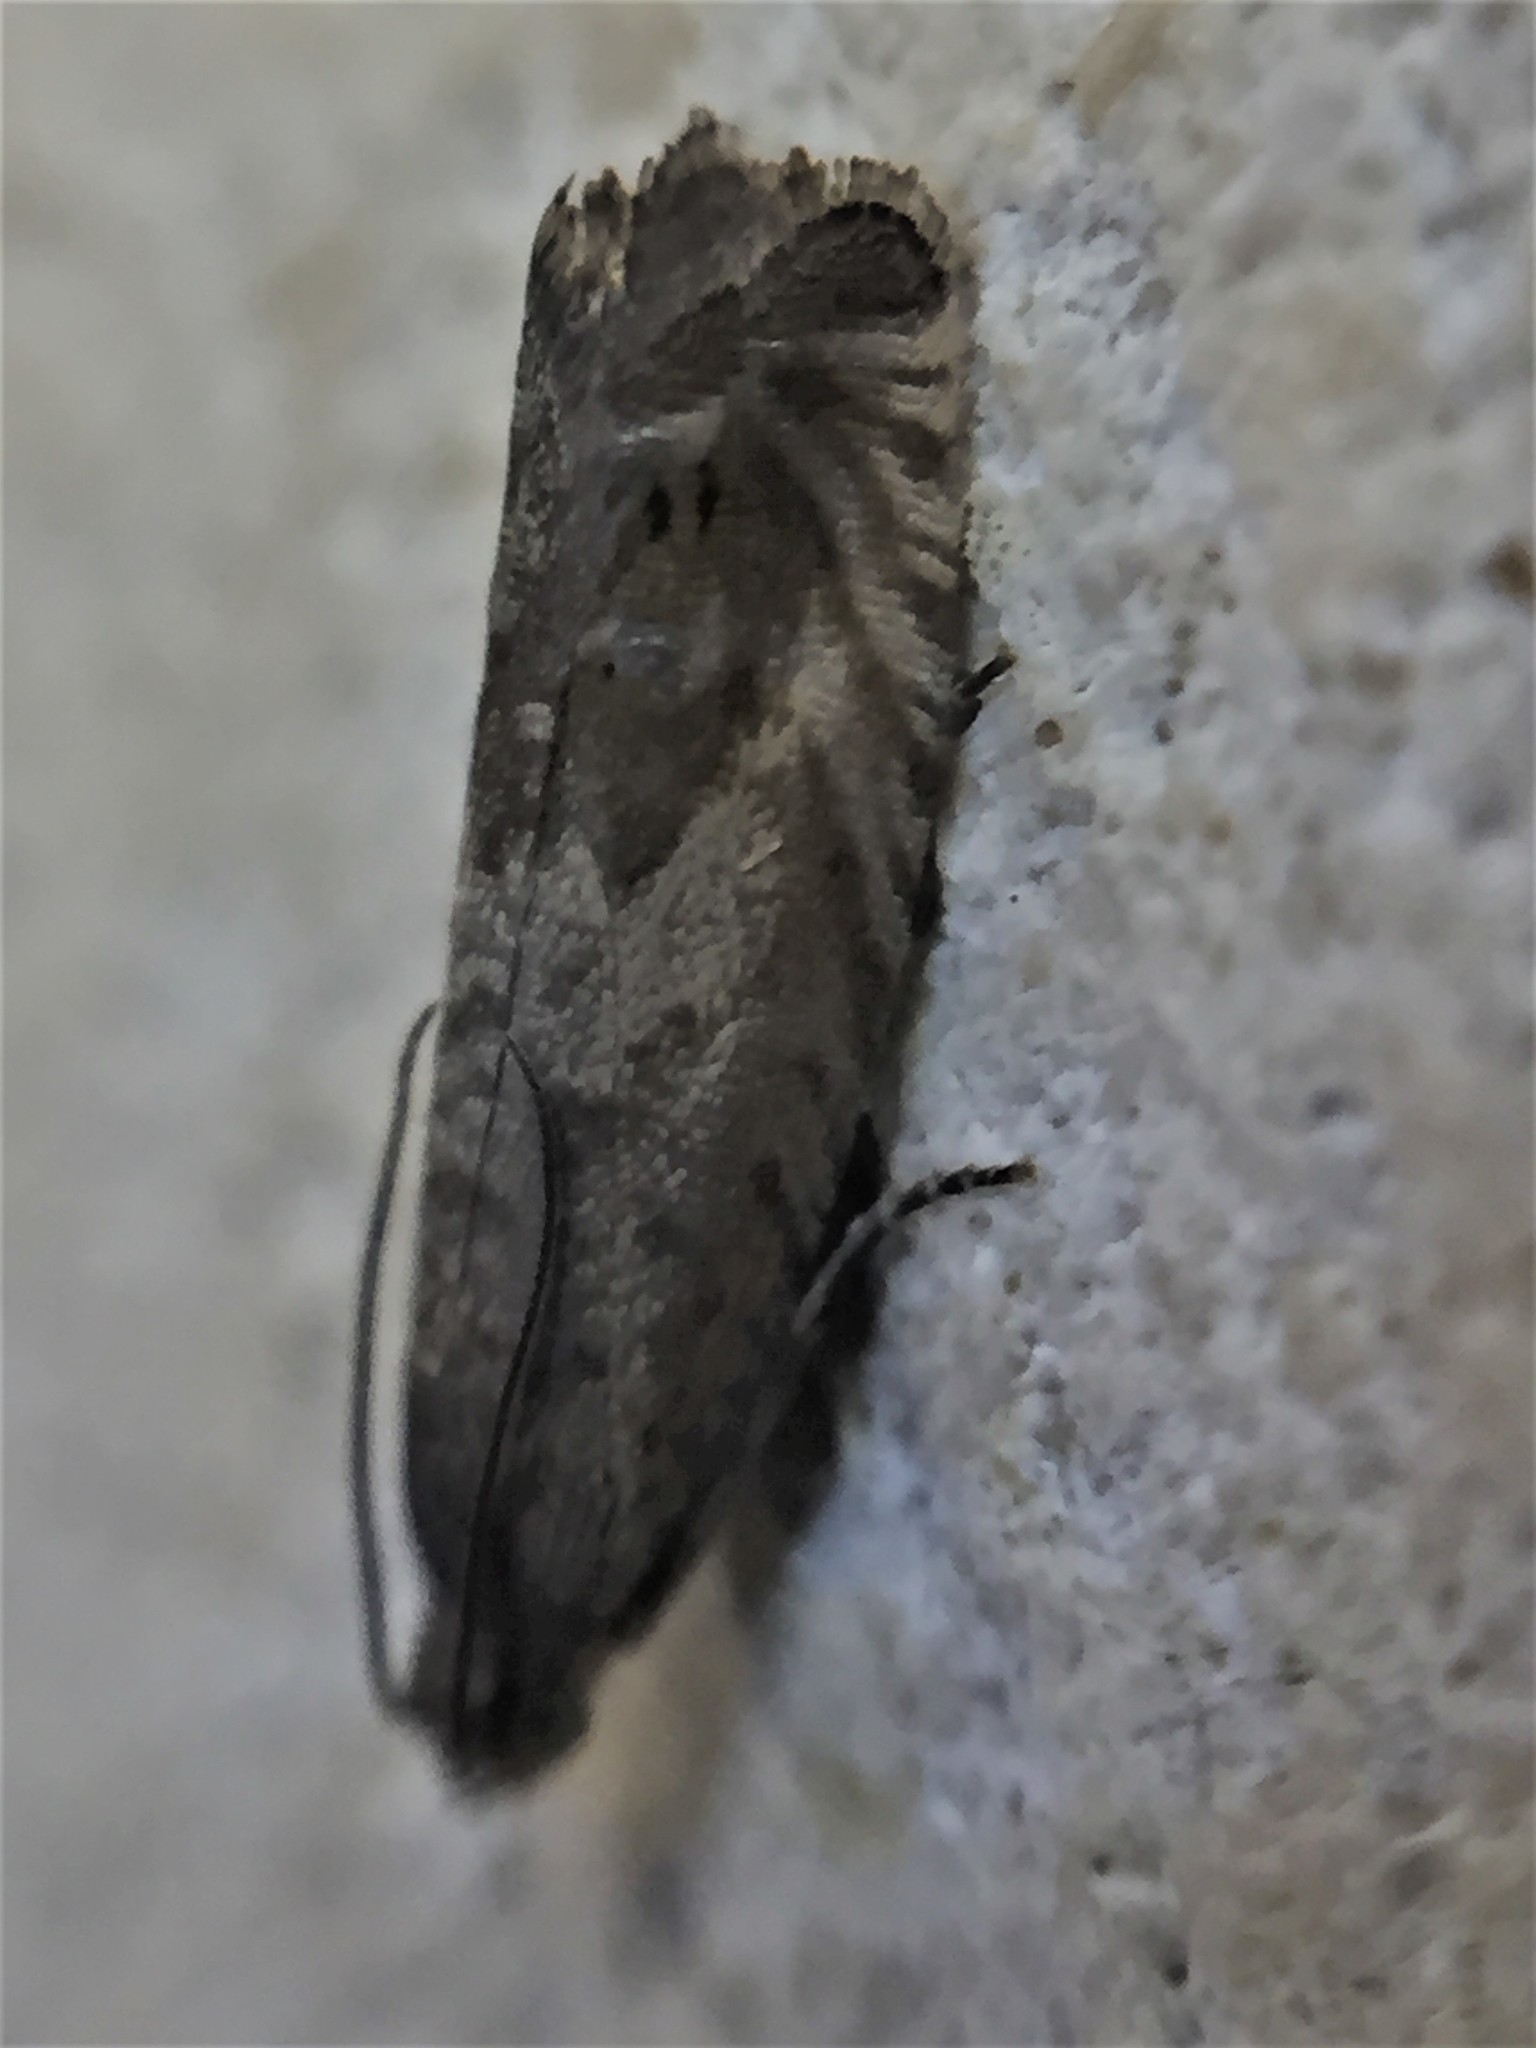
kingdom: Animalia
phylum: Arthropoda
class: Insecta
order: Lepidoptera
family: Tortricidae
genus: Cydia
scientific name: Cydia succedana
